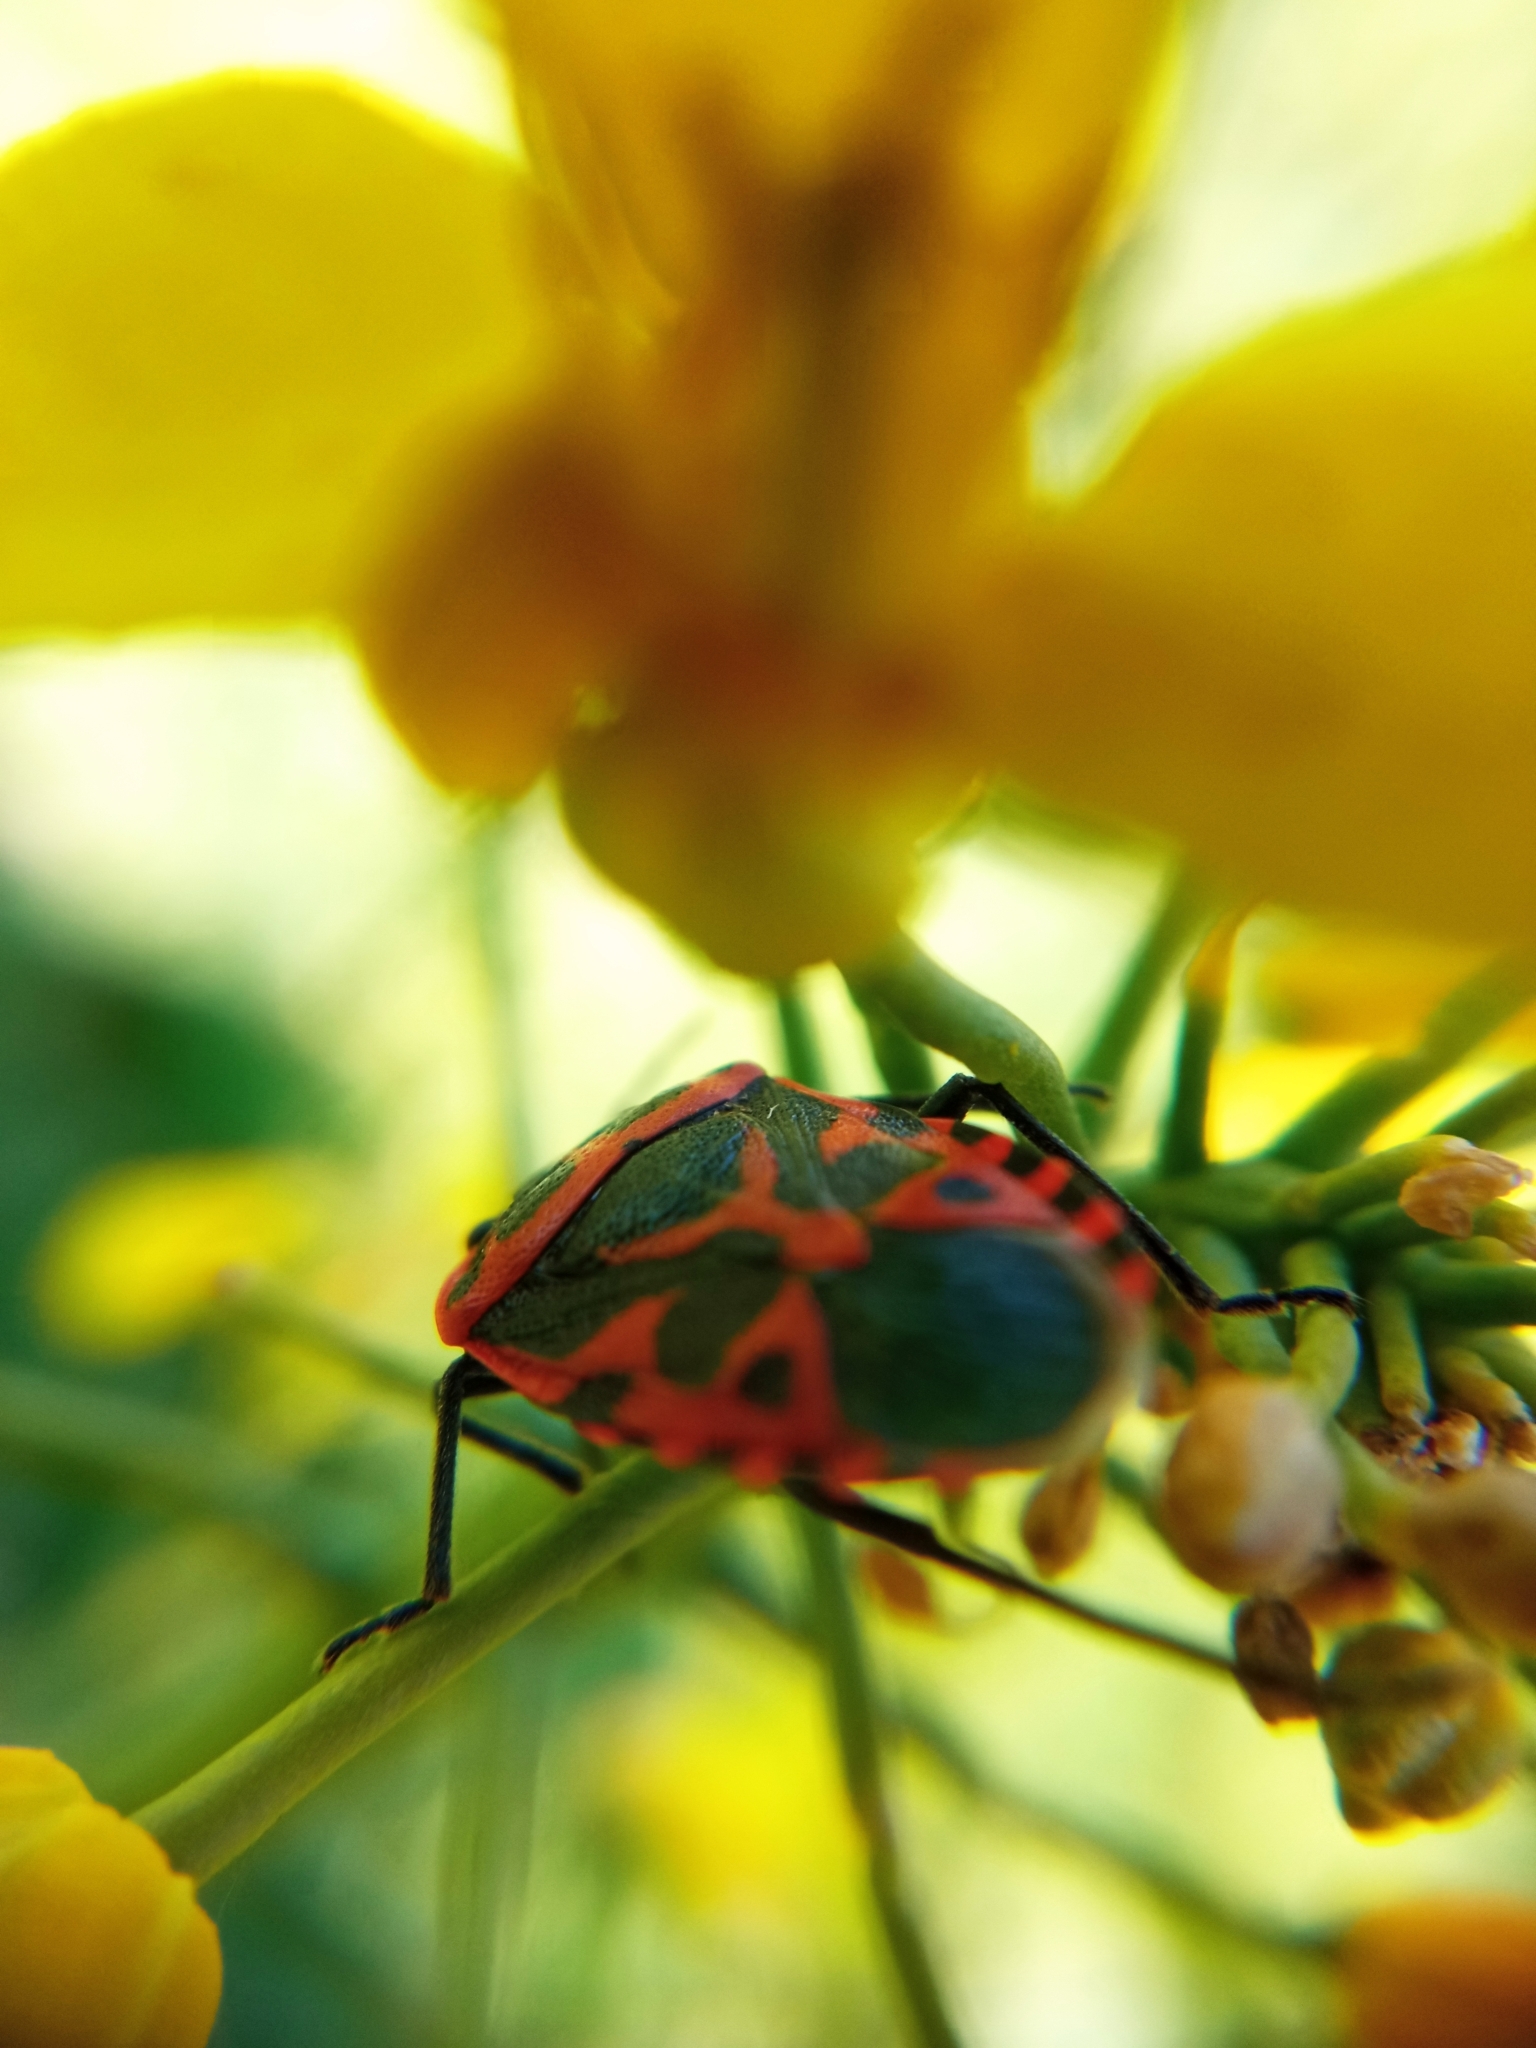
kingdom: Animalia
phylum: Arthropoda
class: Insecta
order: Hemiptera
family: Pentatomidae
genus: Eurydema
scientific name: Eurydema ventralis
